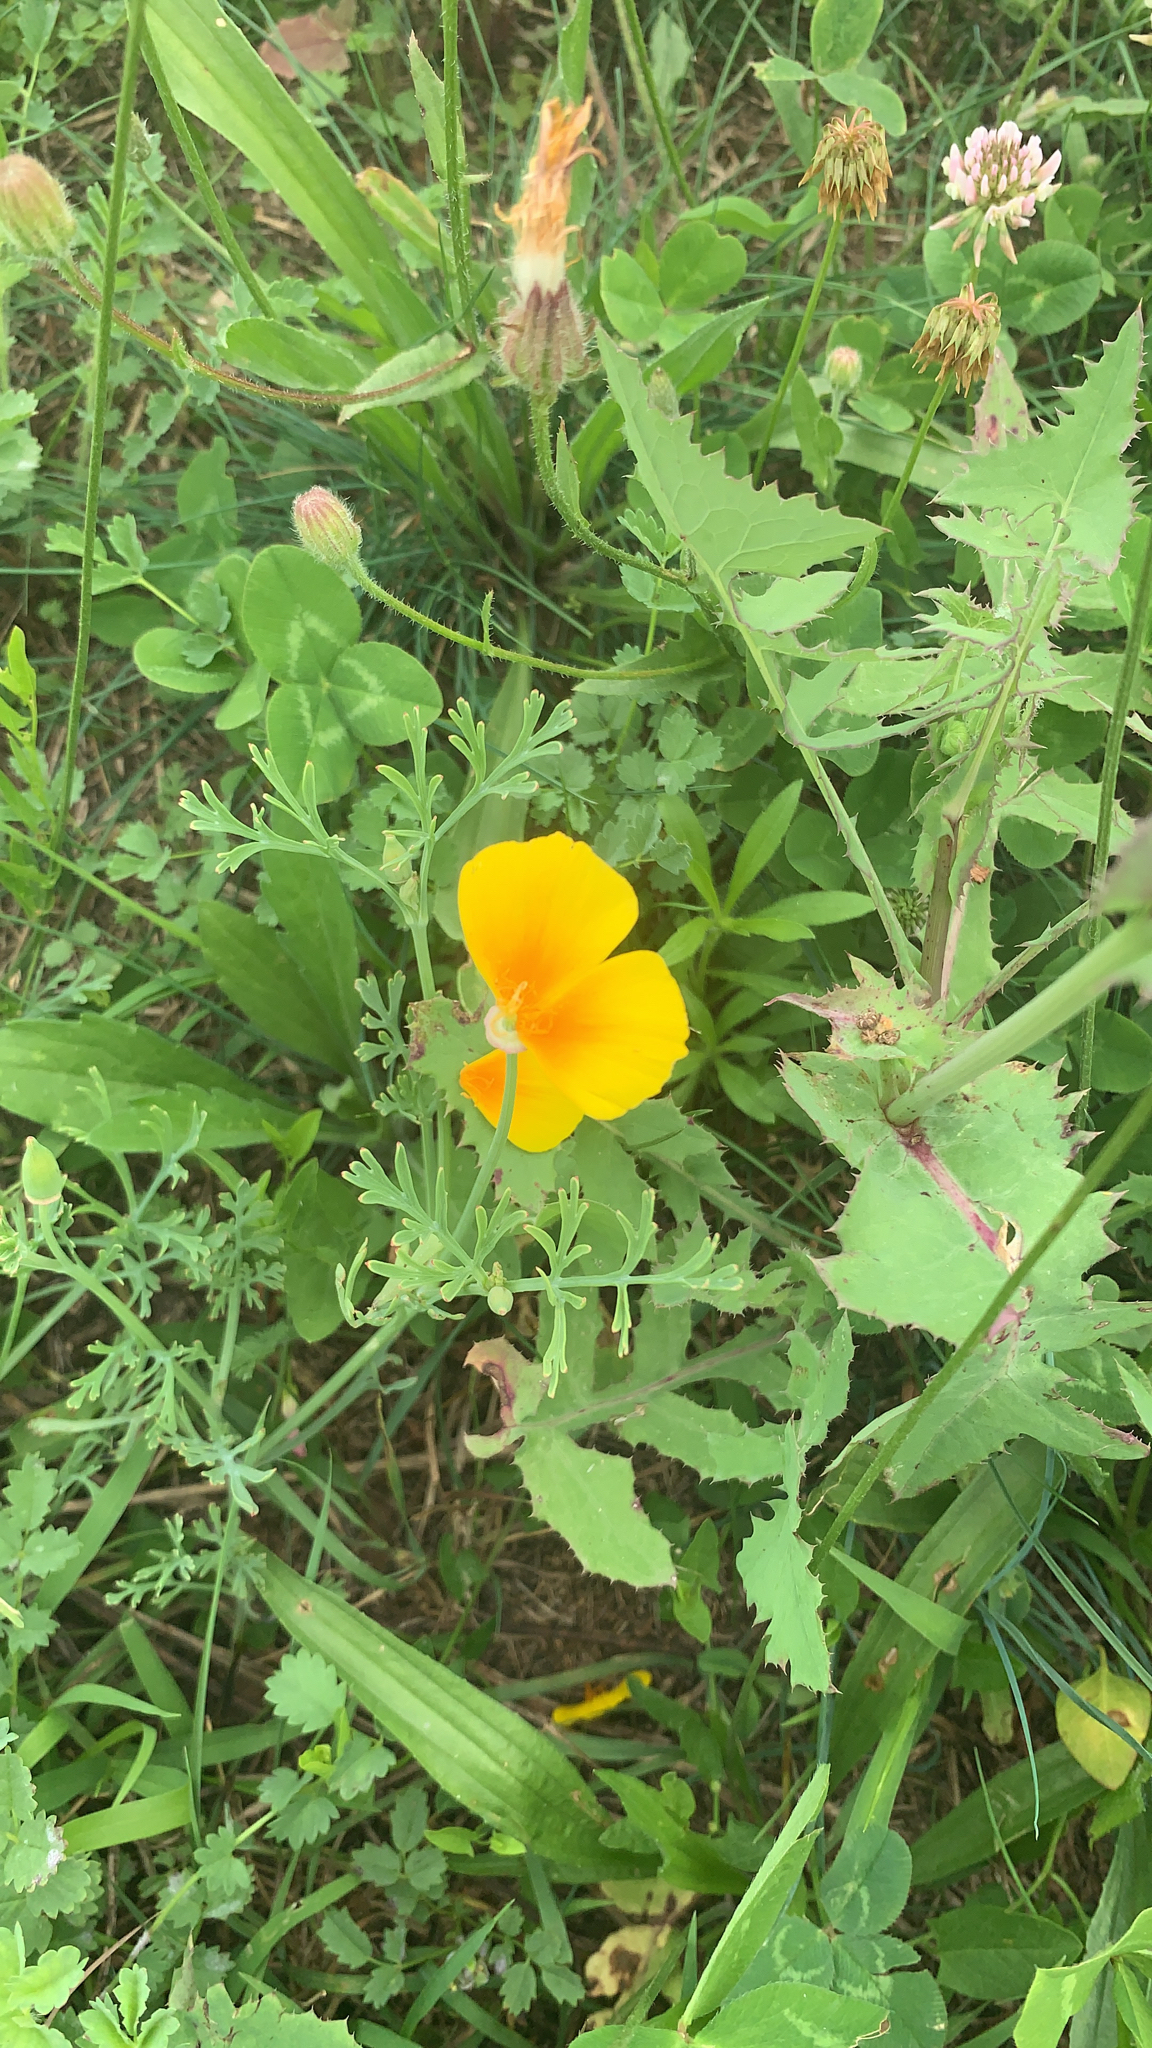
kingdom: Plantae
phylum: Tracheophyta
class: Magnoliopsida
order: Ranunculales
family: Papaveraceae
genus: Eschscholzia
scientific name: Eschscholzia californica
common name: California poppy
